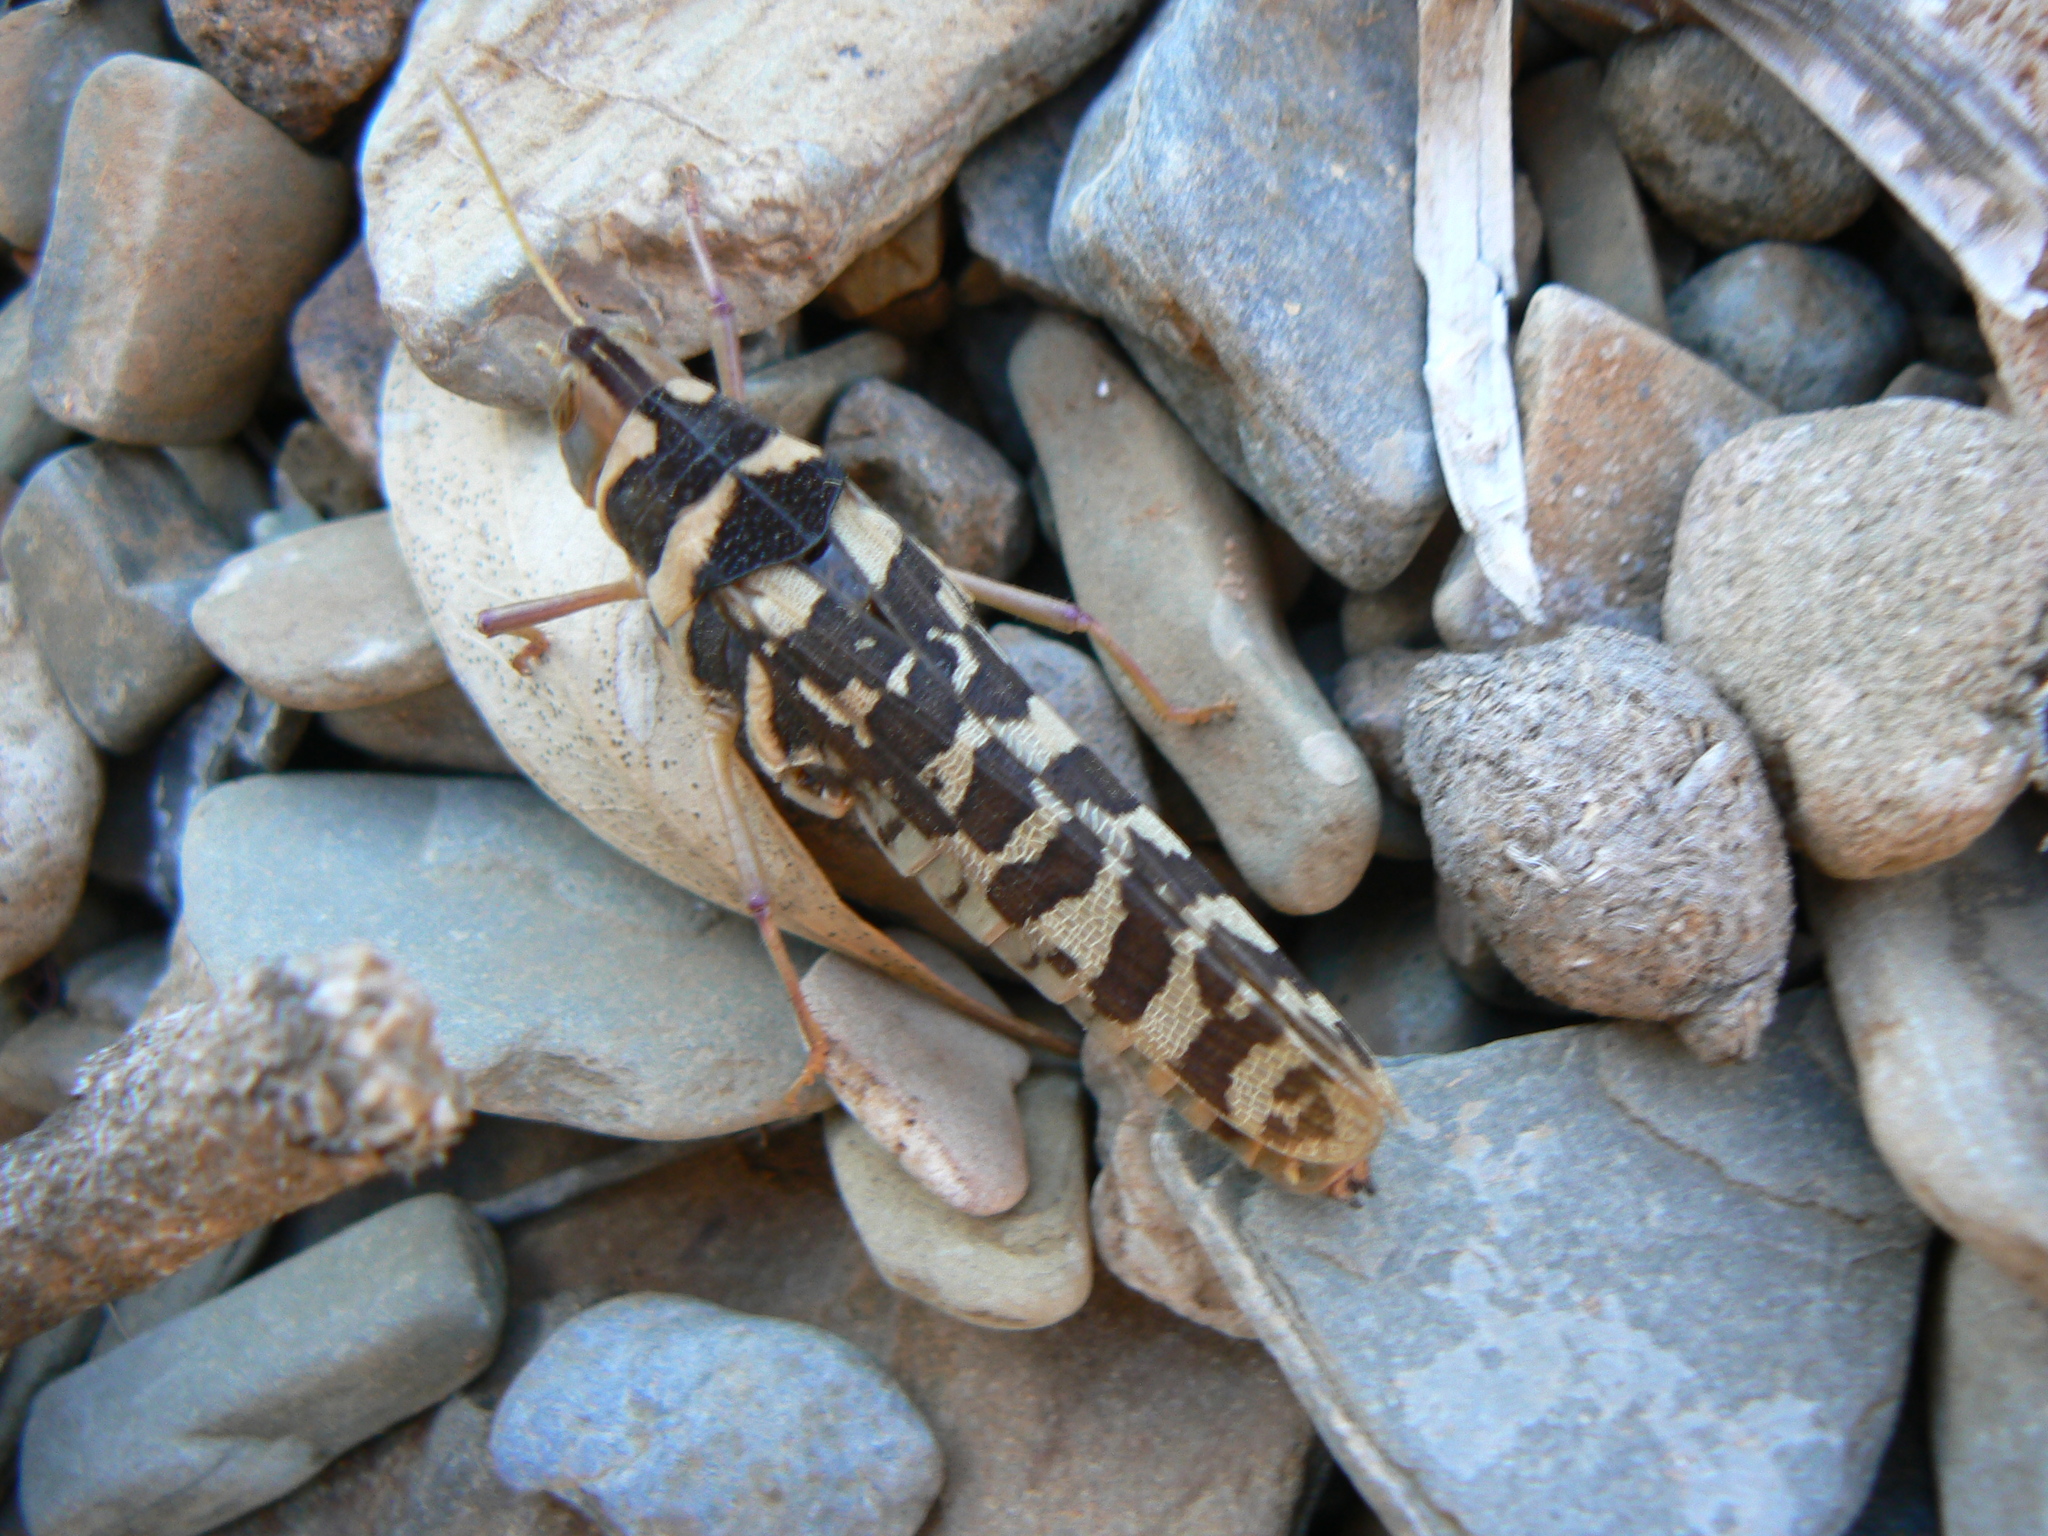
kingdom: Animalia
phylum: Arthropoda
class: Insecta
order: Orthoptera
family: Acrididae
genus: Stropis
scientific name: Stropis maculosa
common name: Leopard grasshopper
